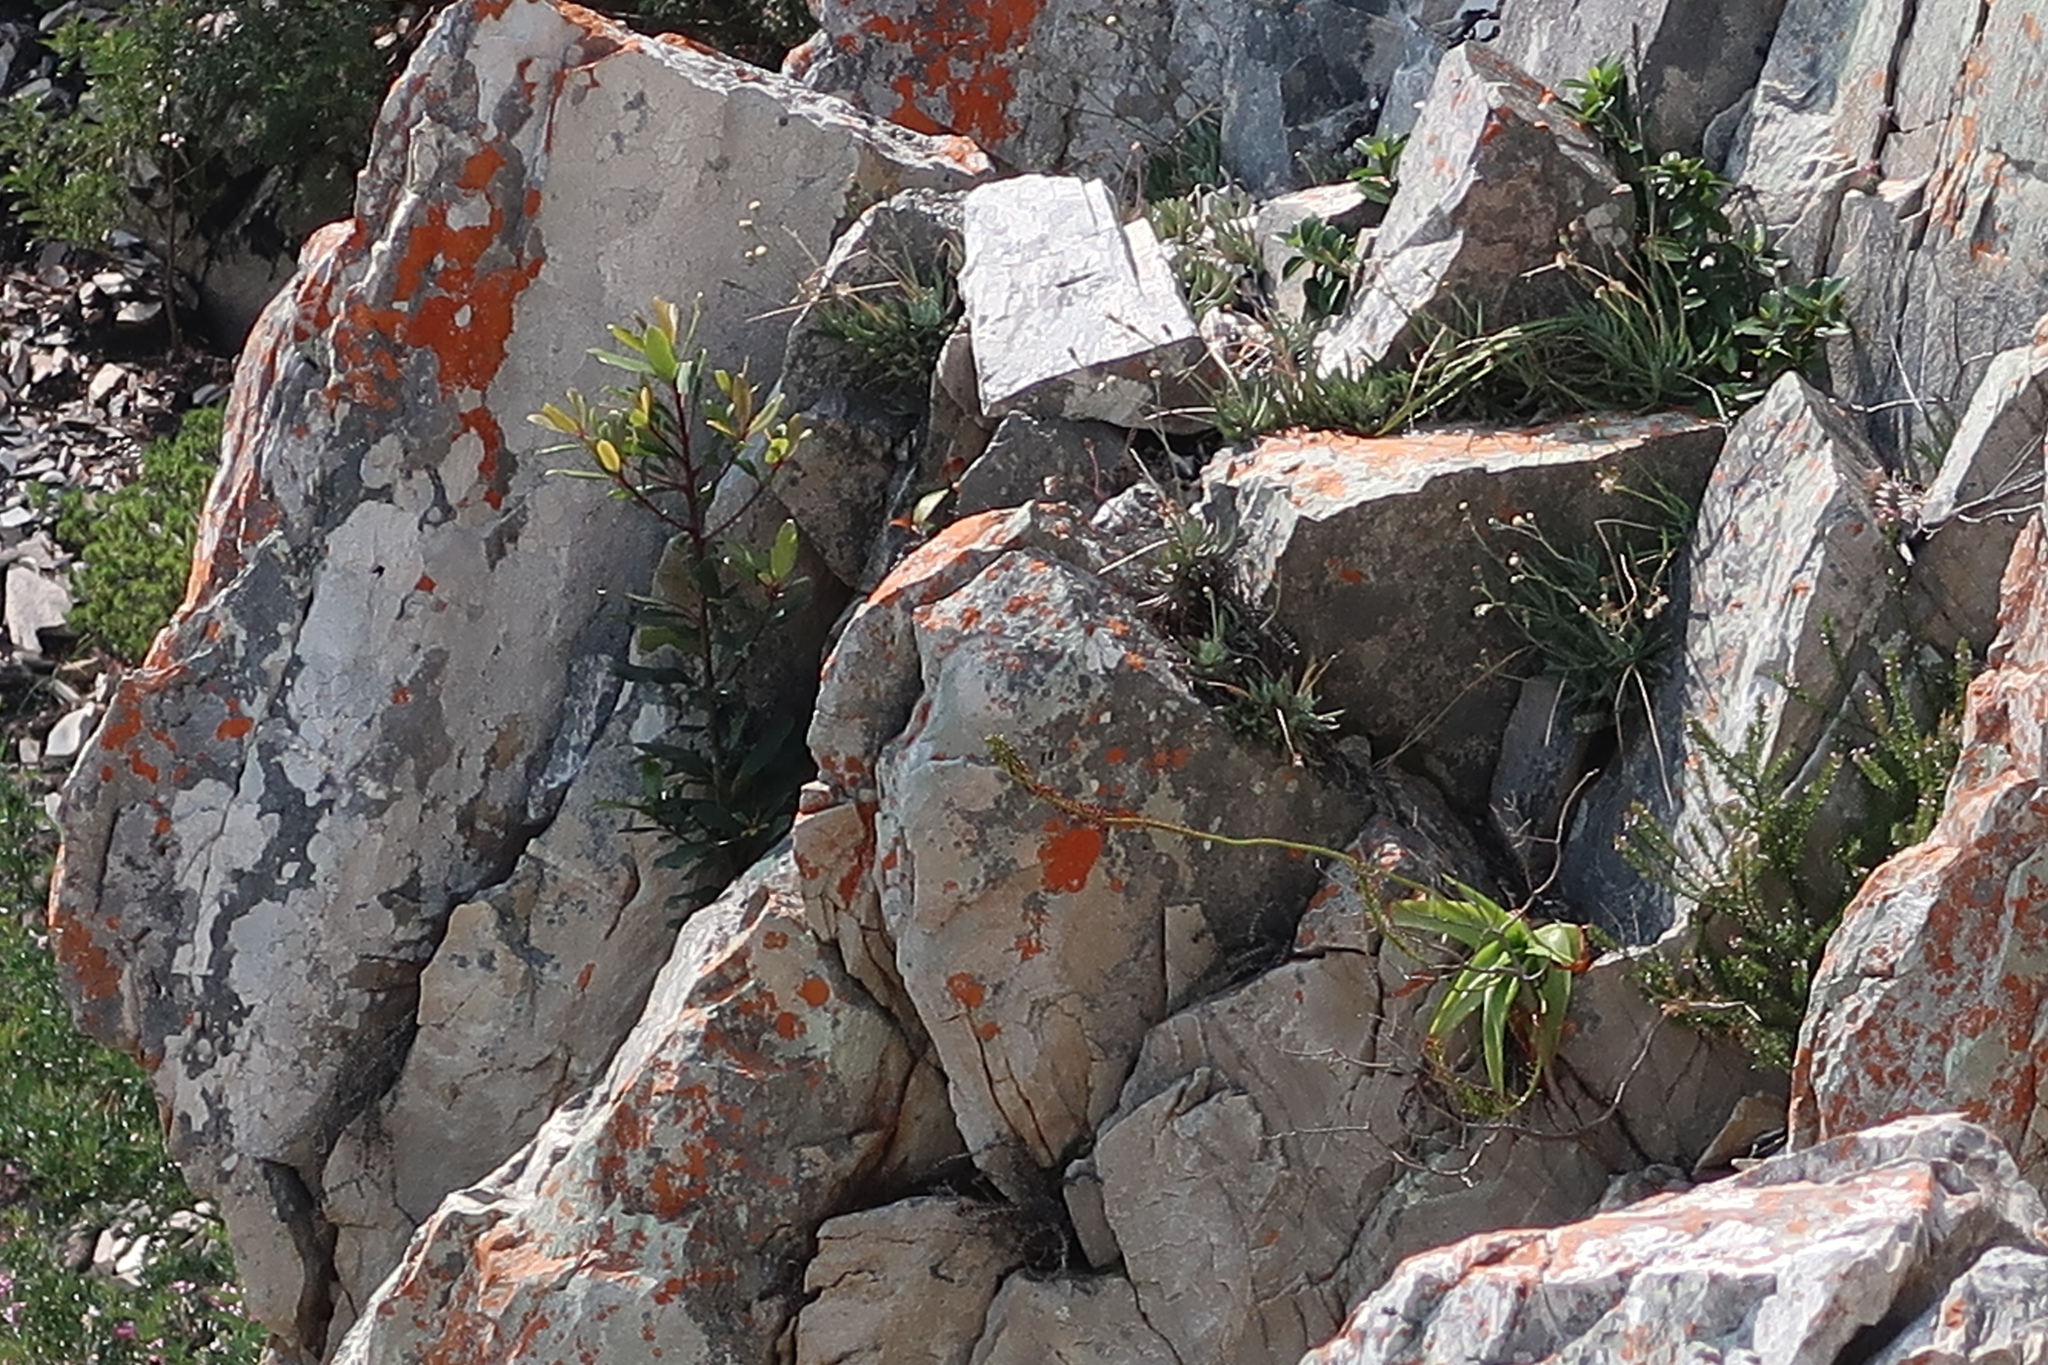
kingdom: Plantae
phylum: Tracheophyta
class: Liliopsida
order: Asparagales
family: Asphodelaceae
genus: Bulbine
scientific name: Bulbine latifolia
